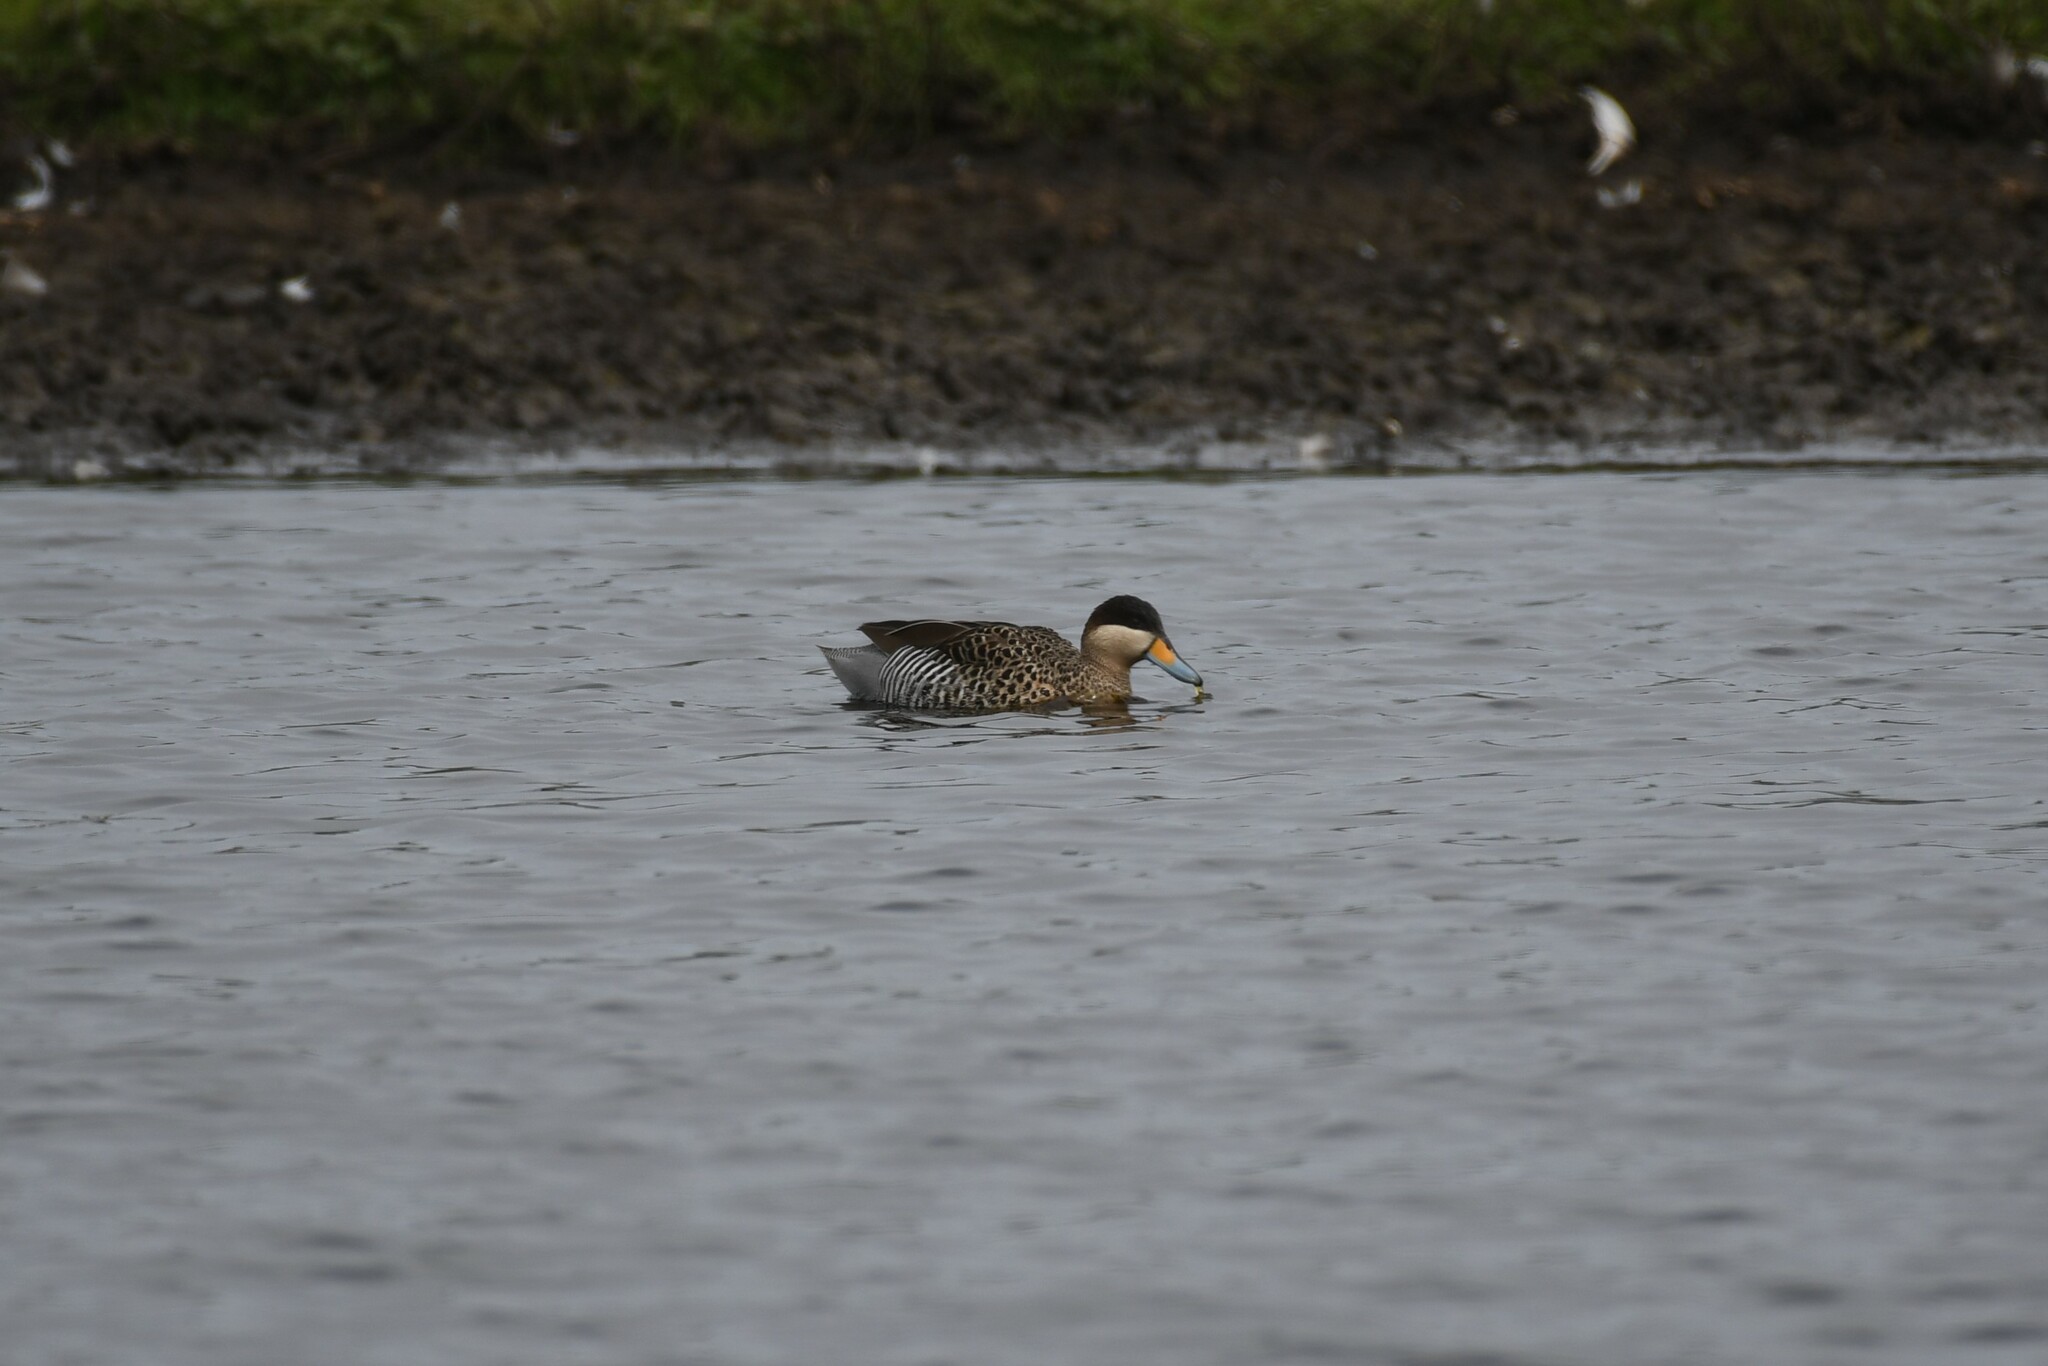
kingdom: Animalia
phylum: Chordata
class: Aves
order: Anseriformes
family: Anatidae
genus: Spatula
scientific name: Spatula versicolor
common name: Silver teal
